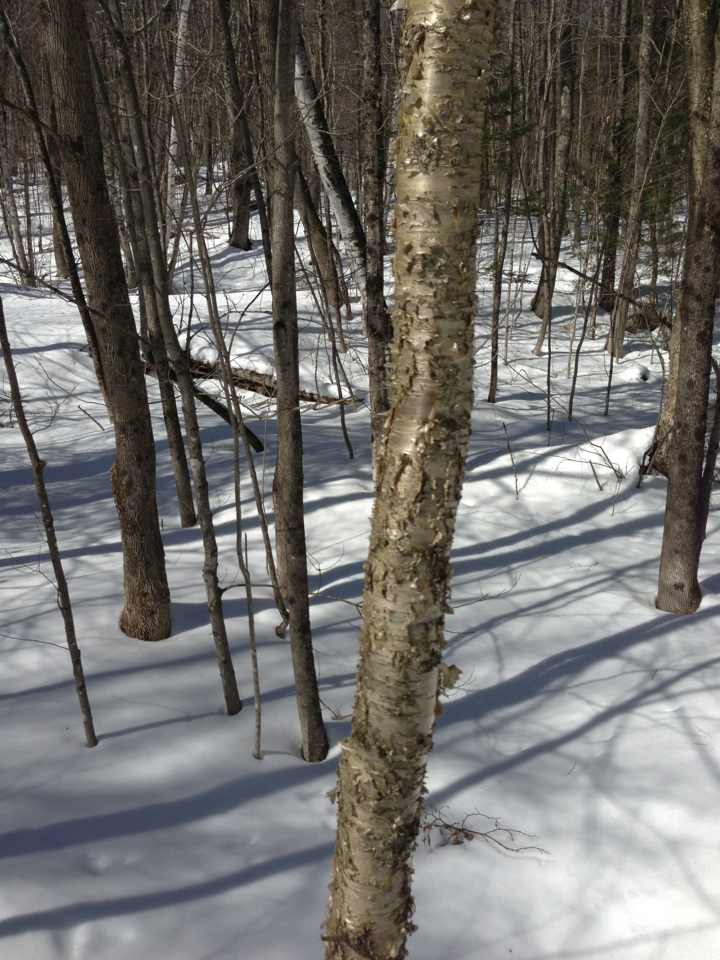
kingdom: Plantae
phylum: Tracheophyta
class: Magnoliopsida
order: Fagales
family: Betulaceae
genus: Betula
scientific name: Betula alleghaniensis
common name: Yellow birch
